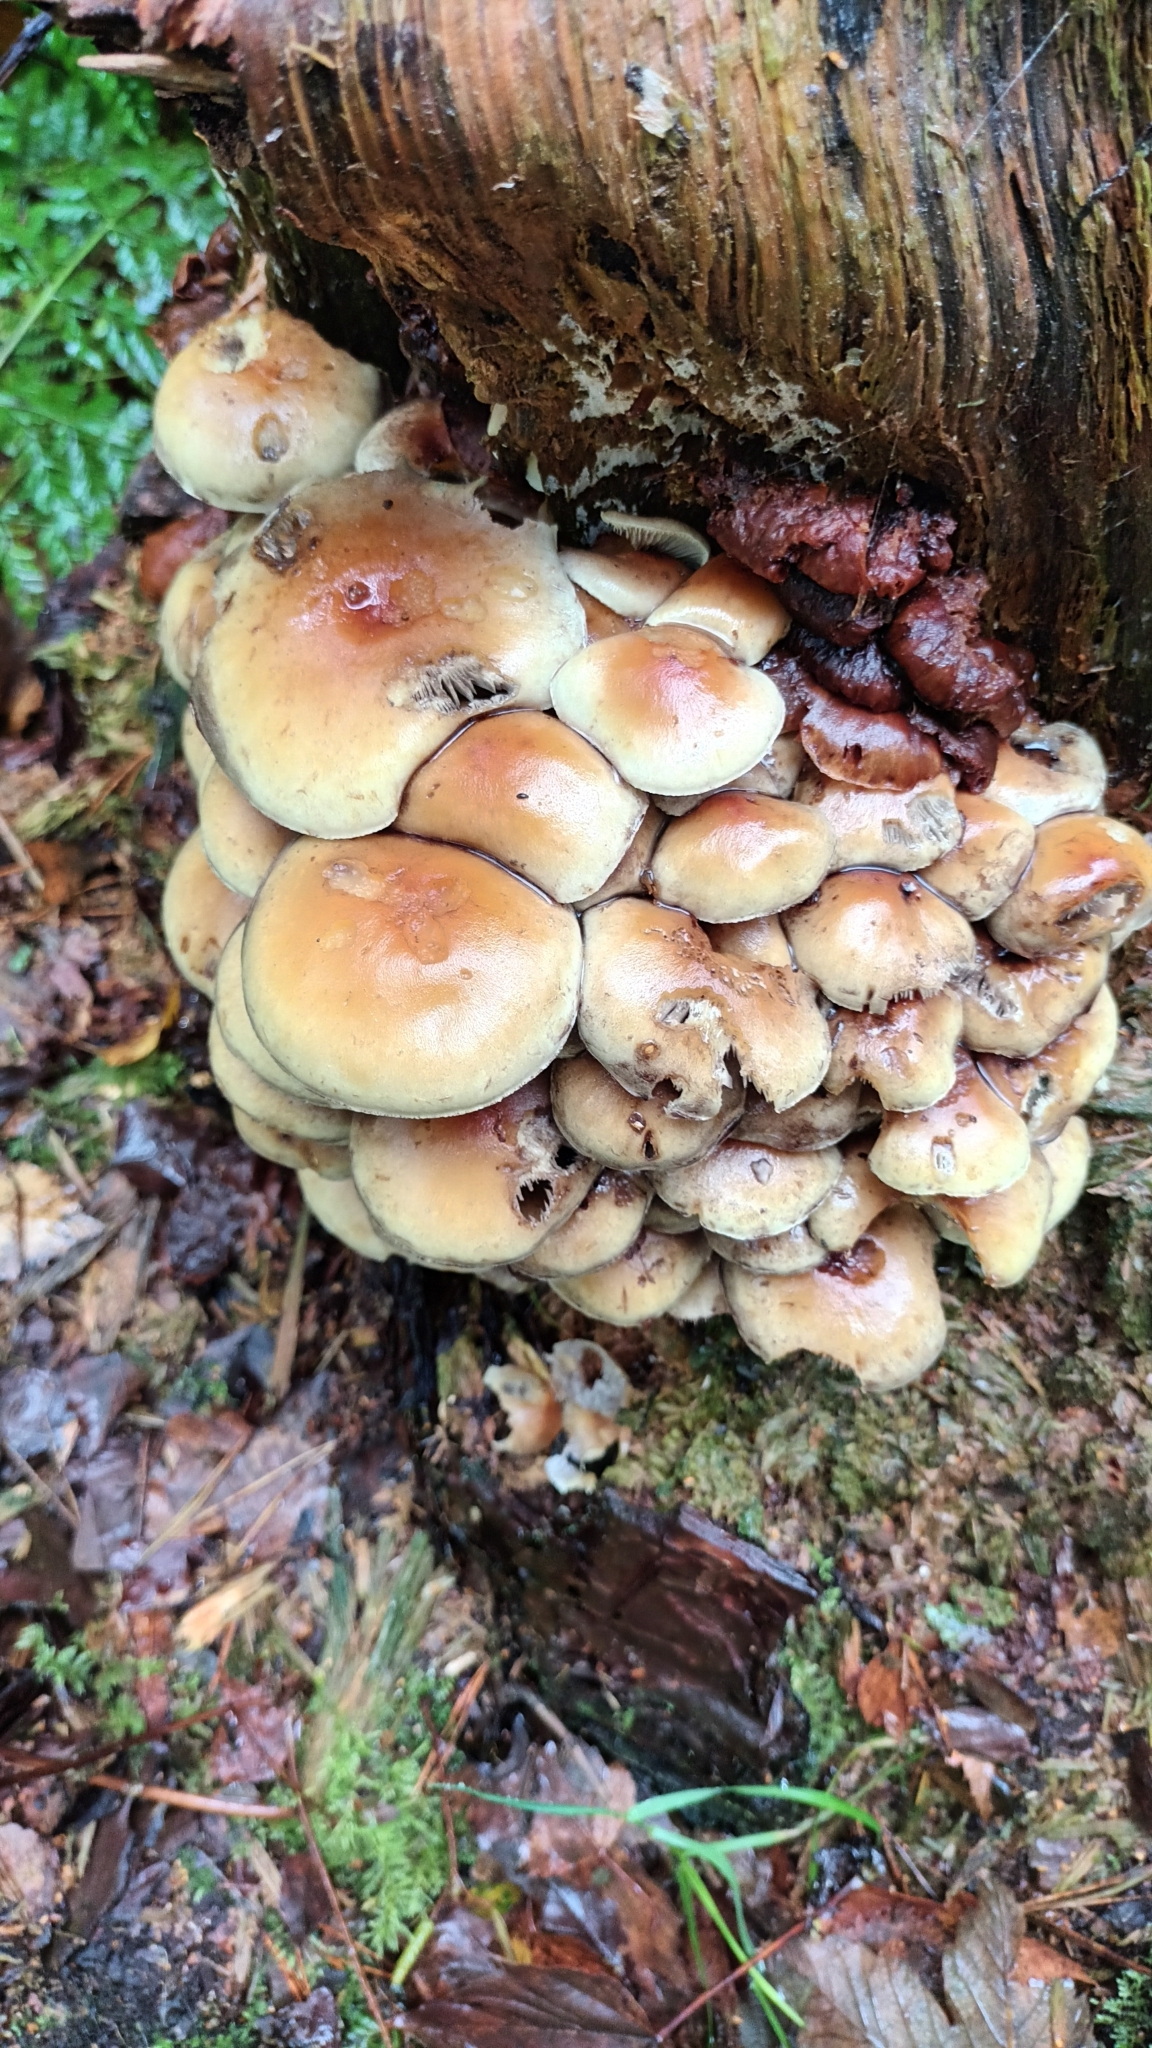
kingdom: Fungi
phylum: Basidiomycota
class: Agaricomycetes
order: Agaricales
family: Strophariaceae
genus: Hypholoma
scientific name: Hypholoma fasciculare
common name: Sulphur tuft
